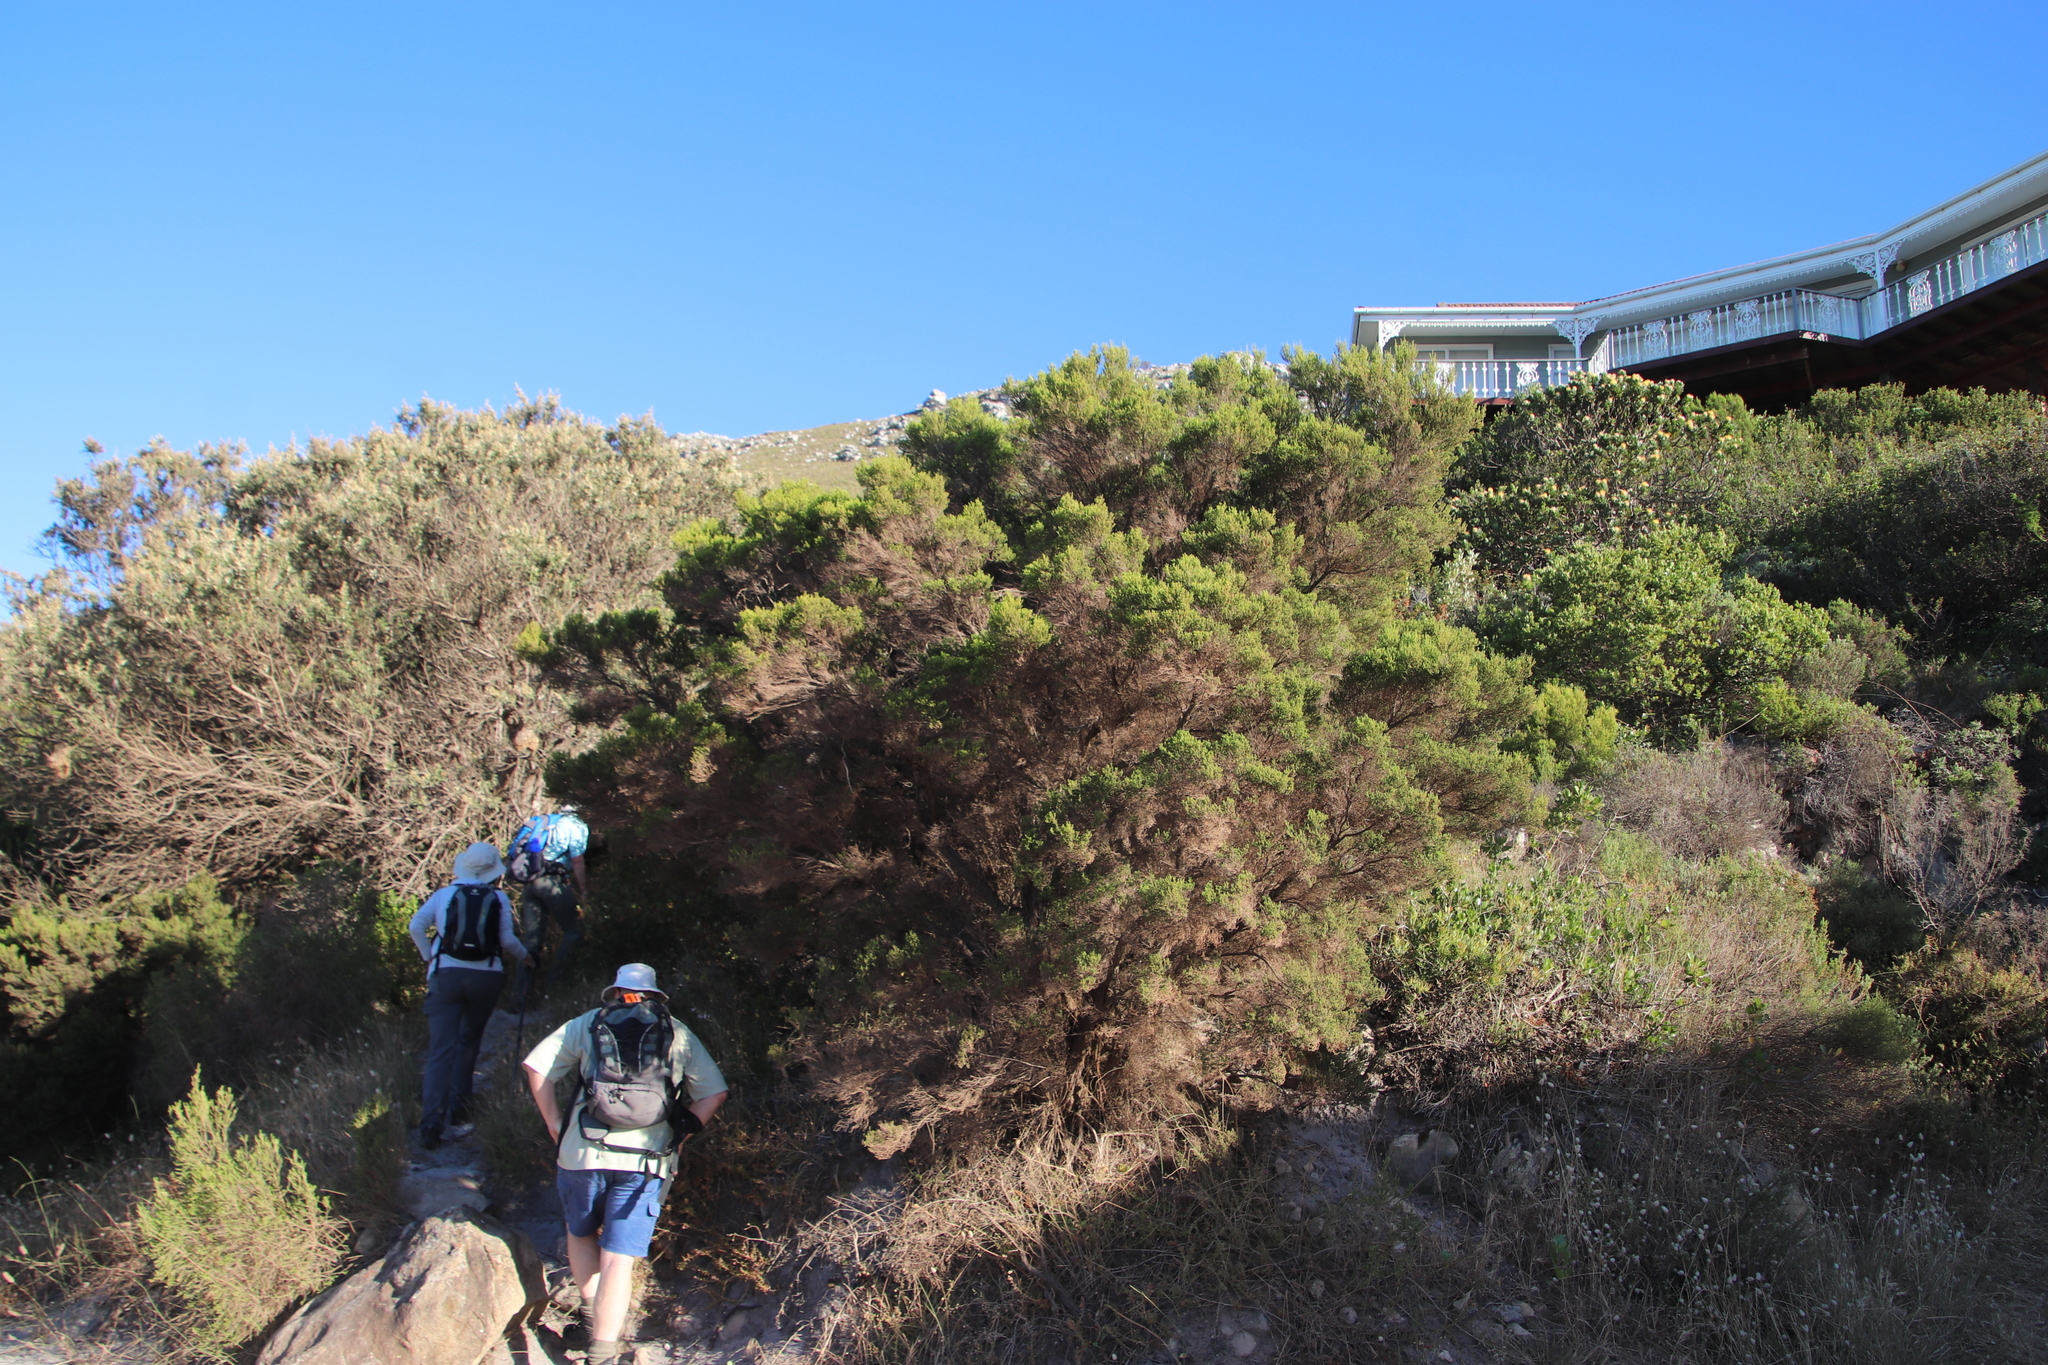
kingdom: Plantae
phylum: Tracheophyta
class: Magnoliopsida
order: Ericales
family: Ericaceae
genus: Erica
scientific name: Erica tristis
